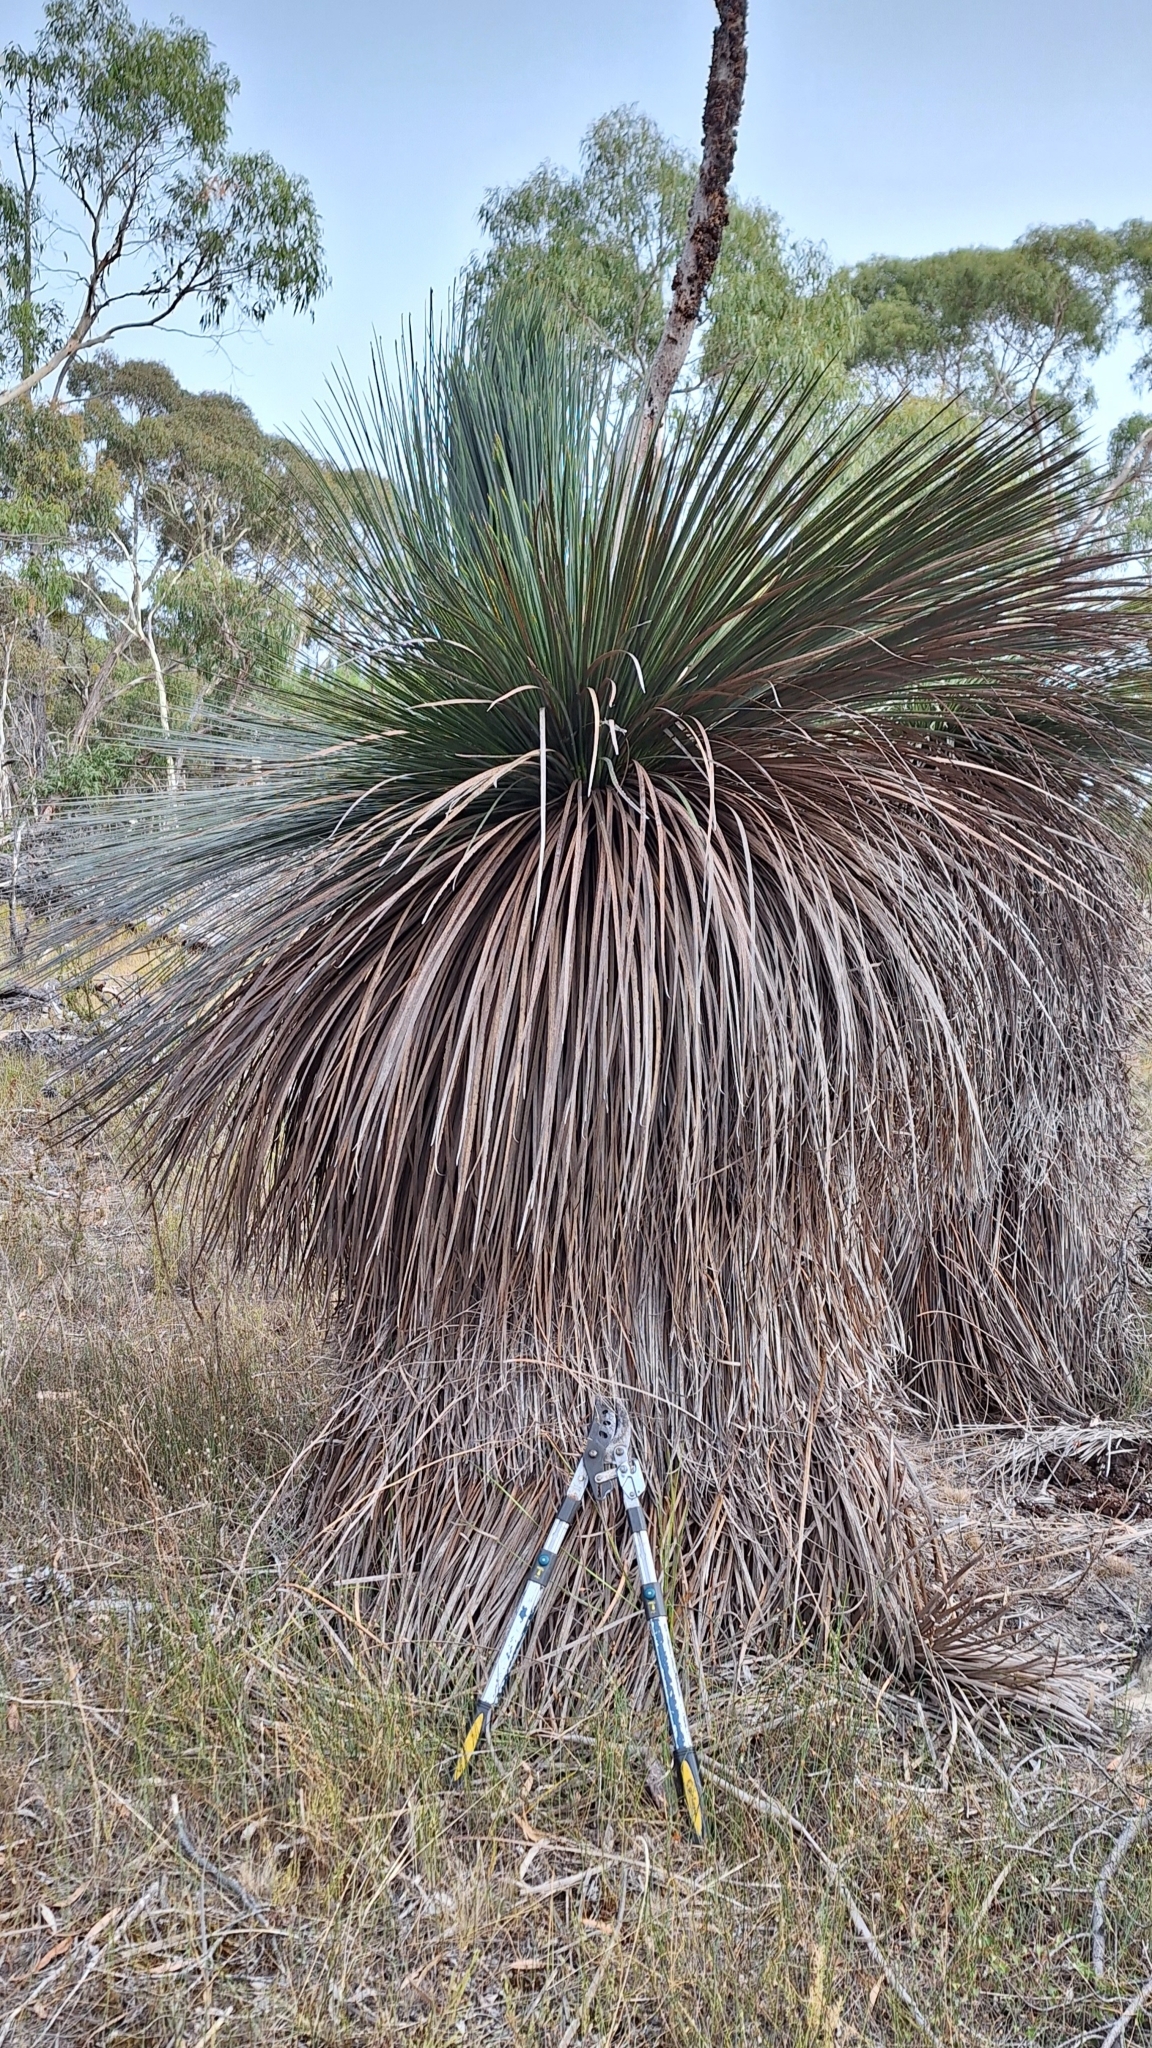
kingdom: Plantae
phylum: Tracheophyta
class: Liliopsida
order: Asparagales
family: Asphodelaceae
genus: Xanthorrhoea
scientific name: Xanthorrhoea semiplana
